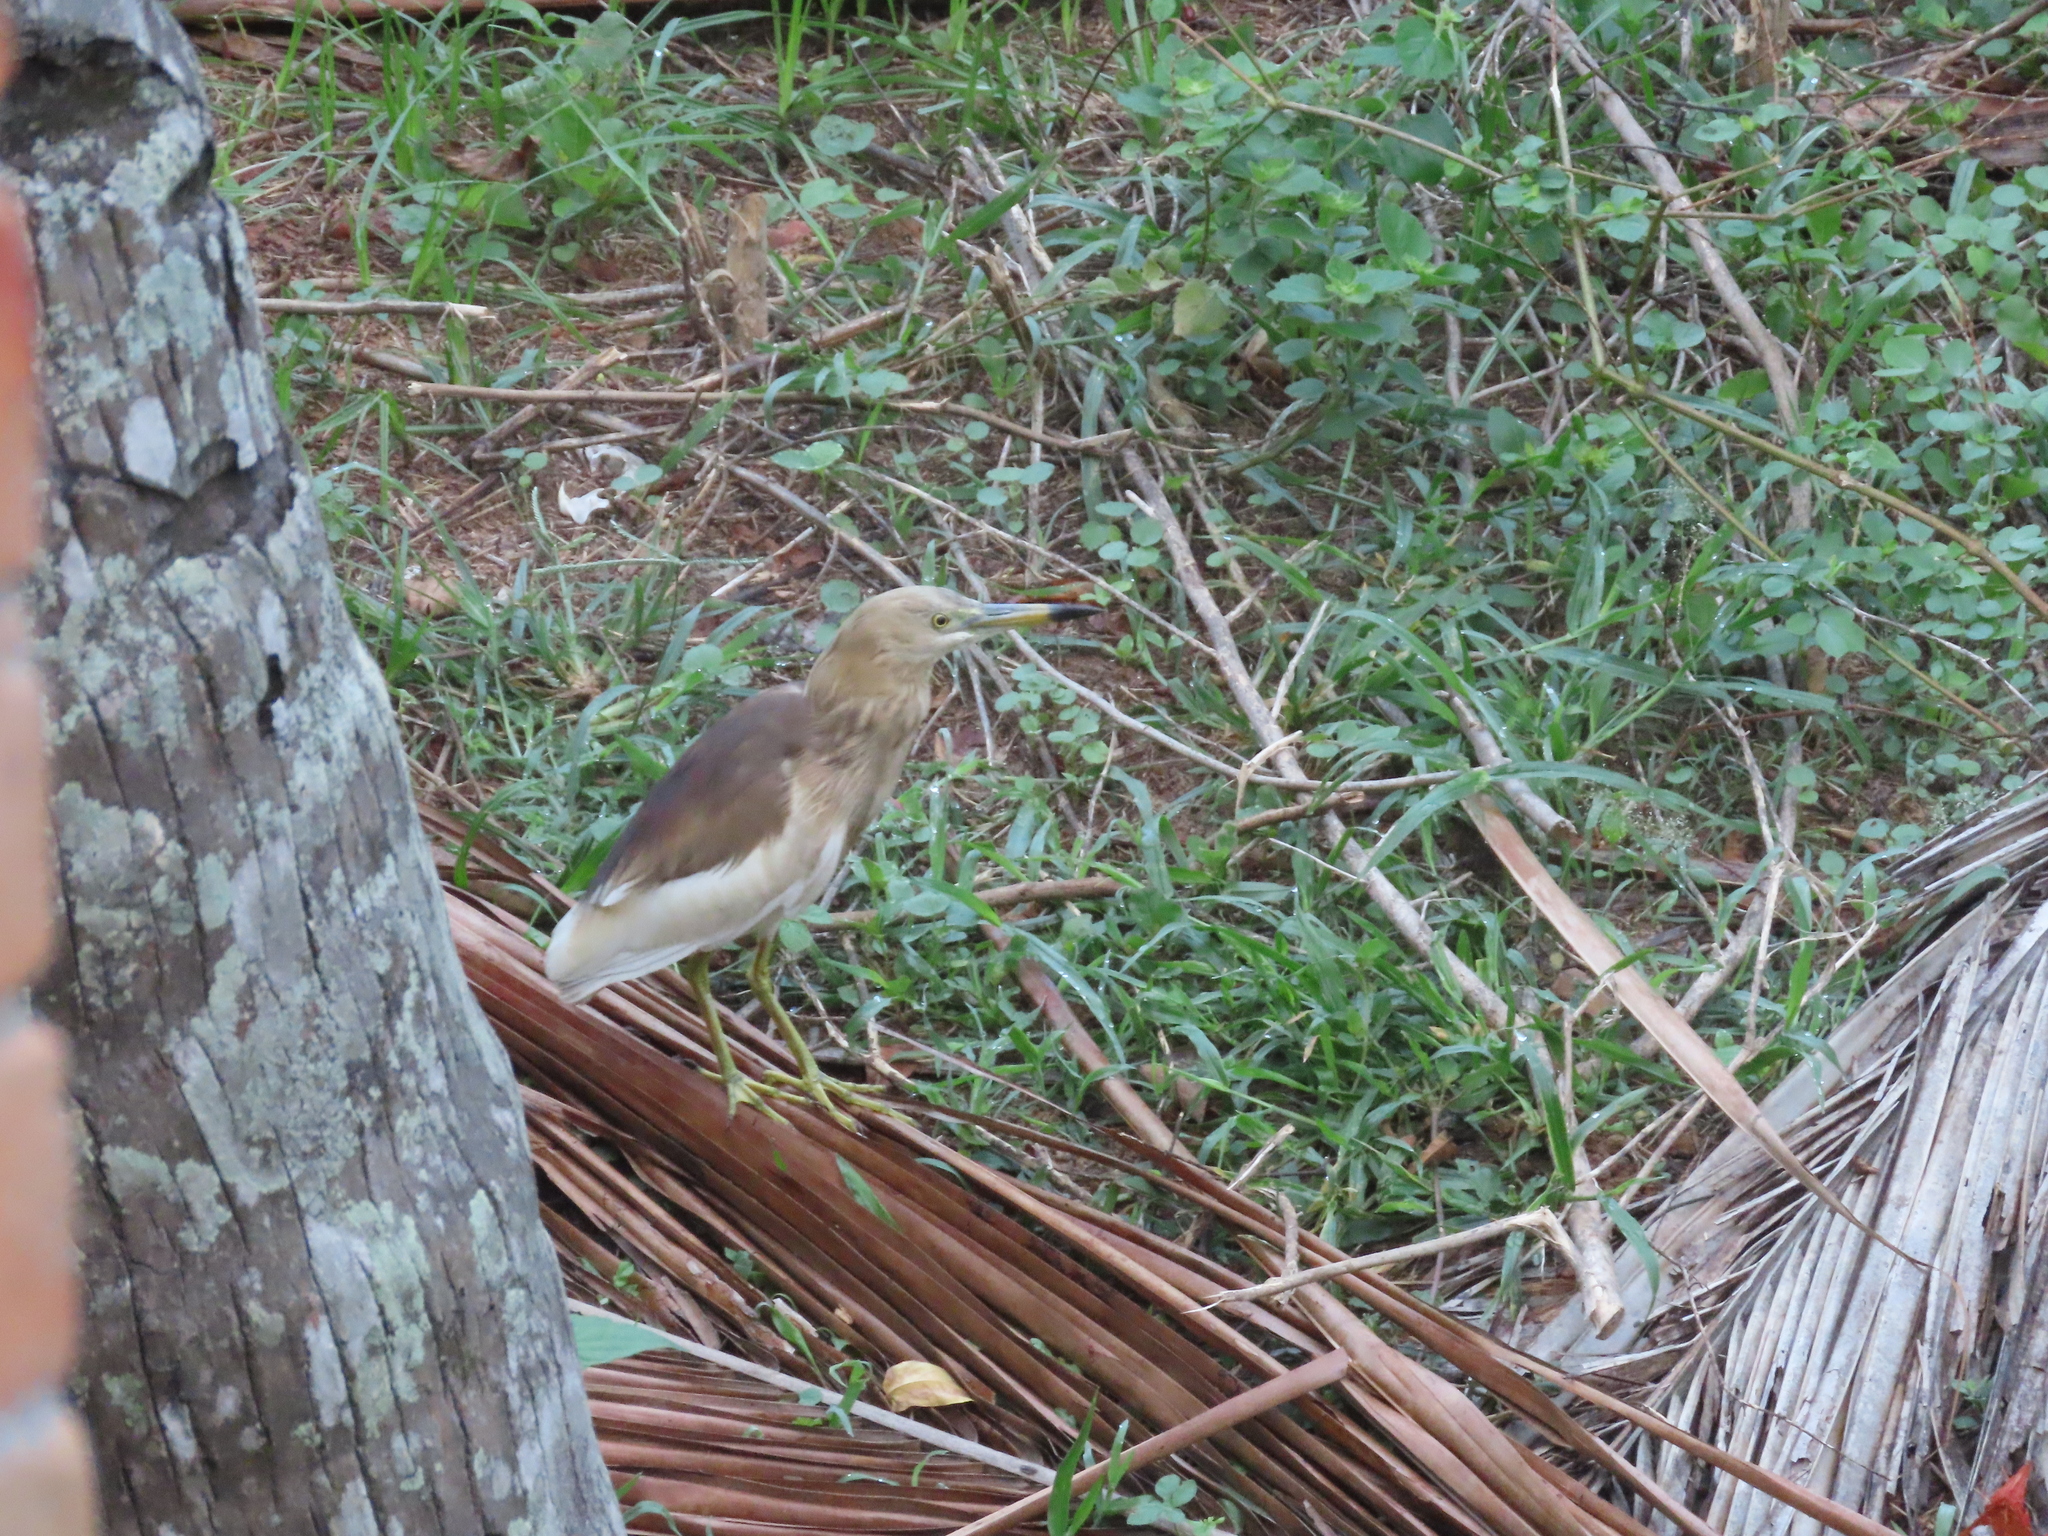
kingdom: Animalia
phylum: Chordata
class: Aves
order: Pelecaniformes
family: Ardeidae
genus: Ardeola
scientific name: Ardeola grayii
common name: Indian pond heron
